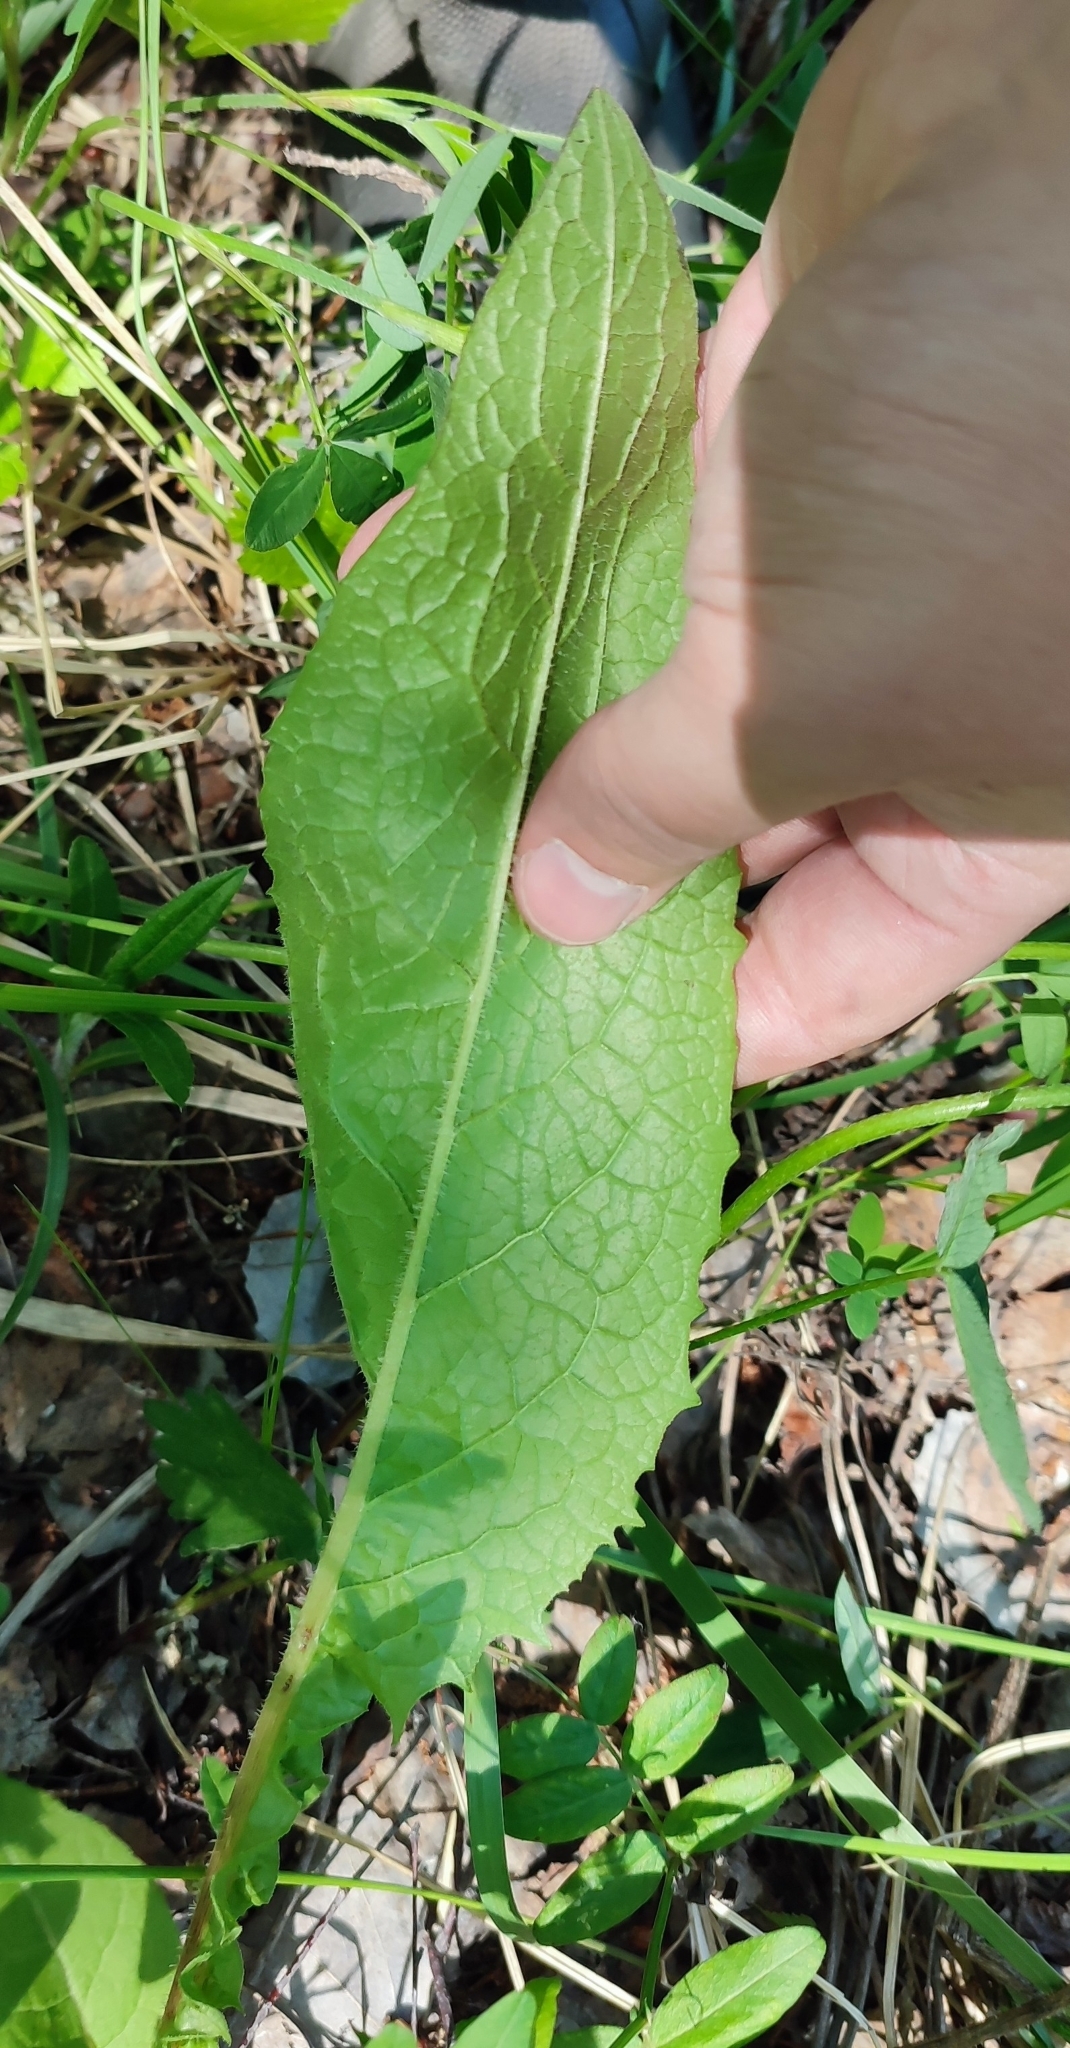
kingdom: Plantae
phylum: Tracheophyta
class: Magnoliopsida
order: Asterales
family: Asteraceae
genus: Crepis
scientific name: Crepis sibirica
